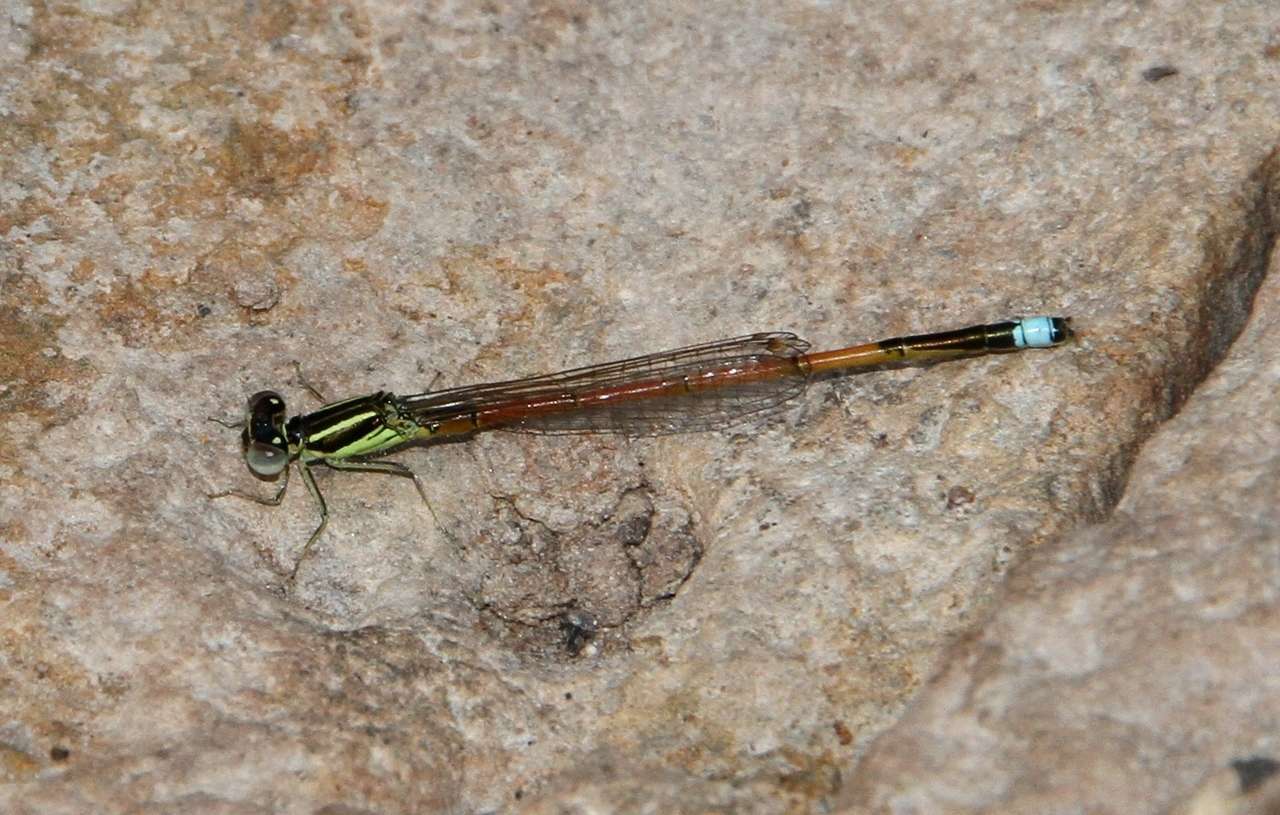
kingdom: Animalia
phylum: Arthropoda
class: Insecta
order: Odonata
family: Coenagrionidae
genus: Ischnura
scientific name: Ischnura aurora
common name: Gossamer damselfly
